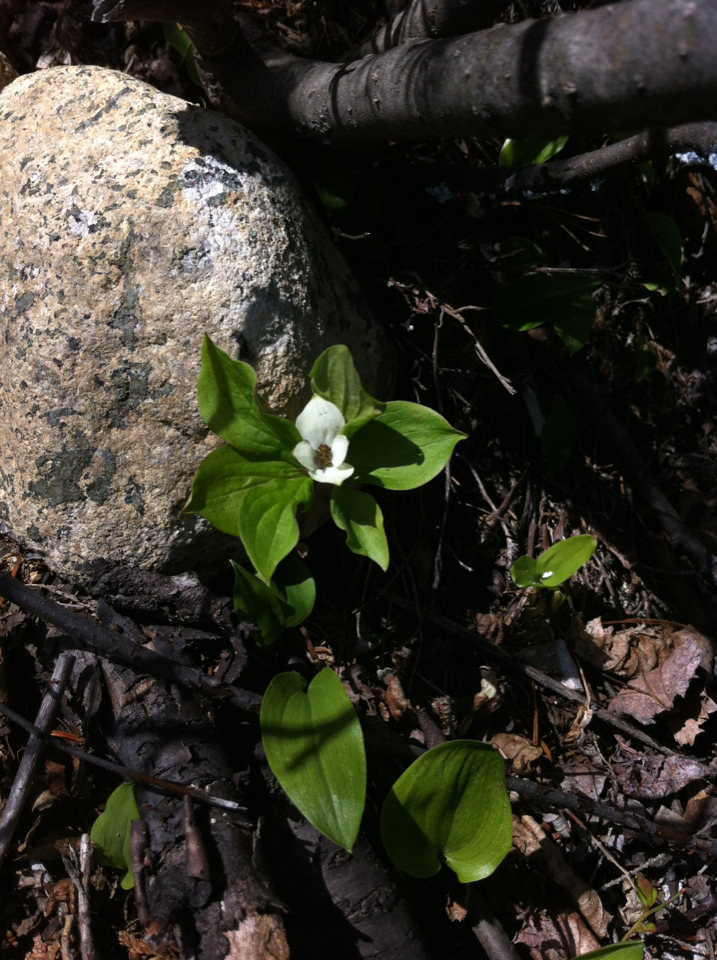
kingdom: Plantae
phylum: Tracheophyta
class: Magnoliopsida
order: Cornales
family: Cornaceae
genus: Cornus
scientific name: Cornus canadensis
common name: Creeping dogwood
